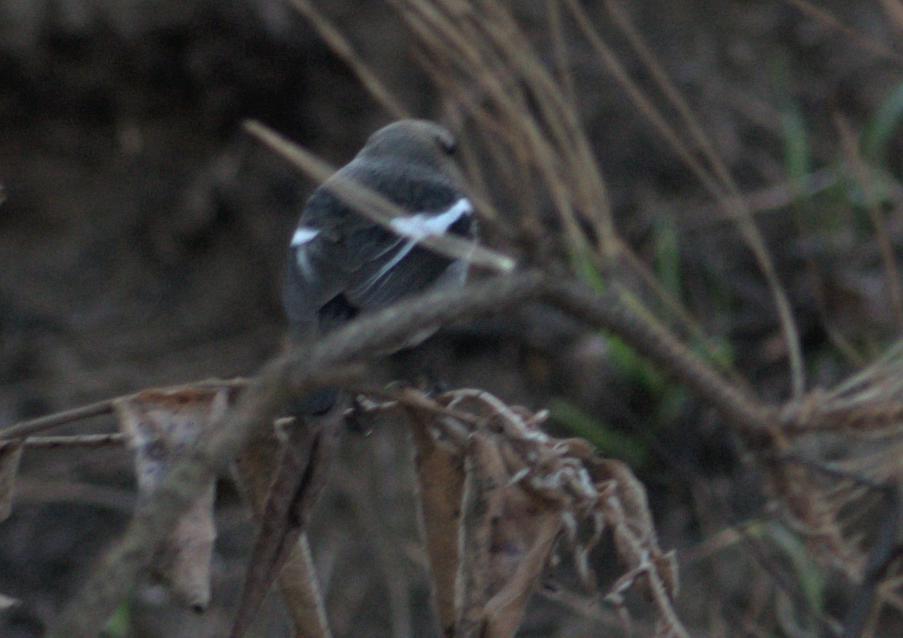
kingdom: Animalia
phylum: Chordata
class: Aves
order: Passeriformes
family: Muscicapidae
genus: Phoenicurus
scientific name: Phoenicurus coeruleocephala
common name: Blue-capped redstart
